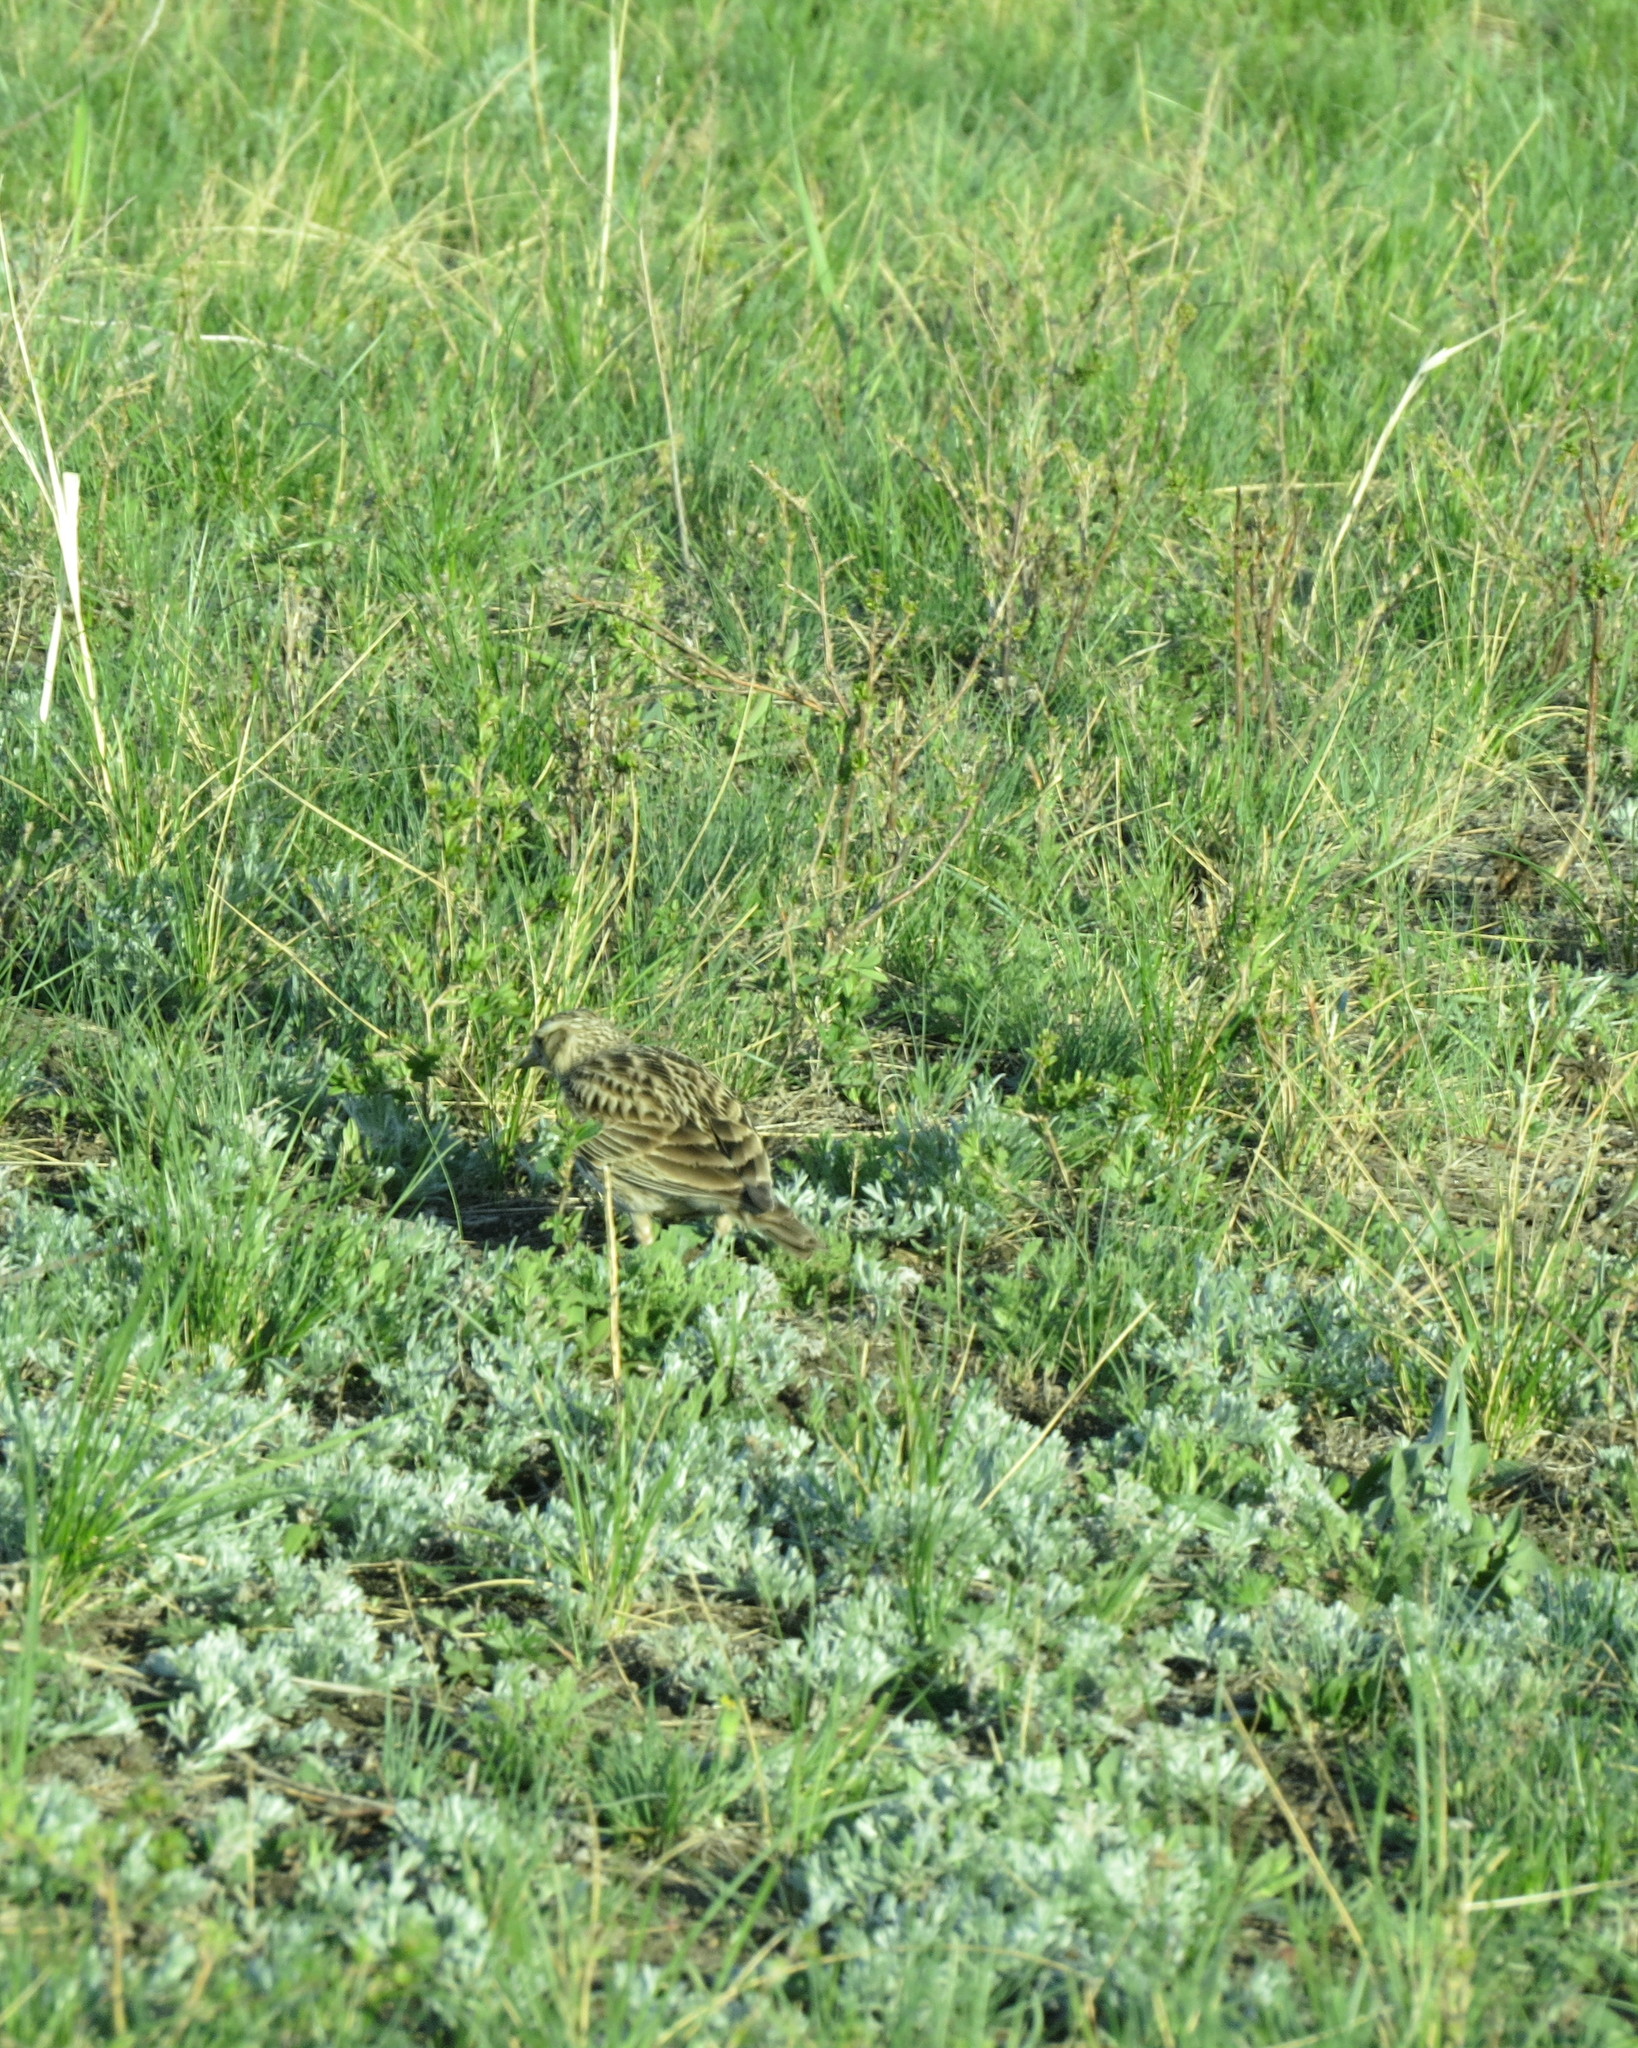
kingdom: Animalia
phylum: Chordata
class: Aves
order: Passeriformes
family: Alaudidae
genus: Alauda
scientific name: Alauda arvensis
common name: Eurasian skylark
